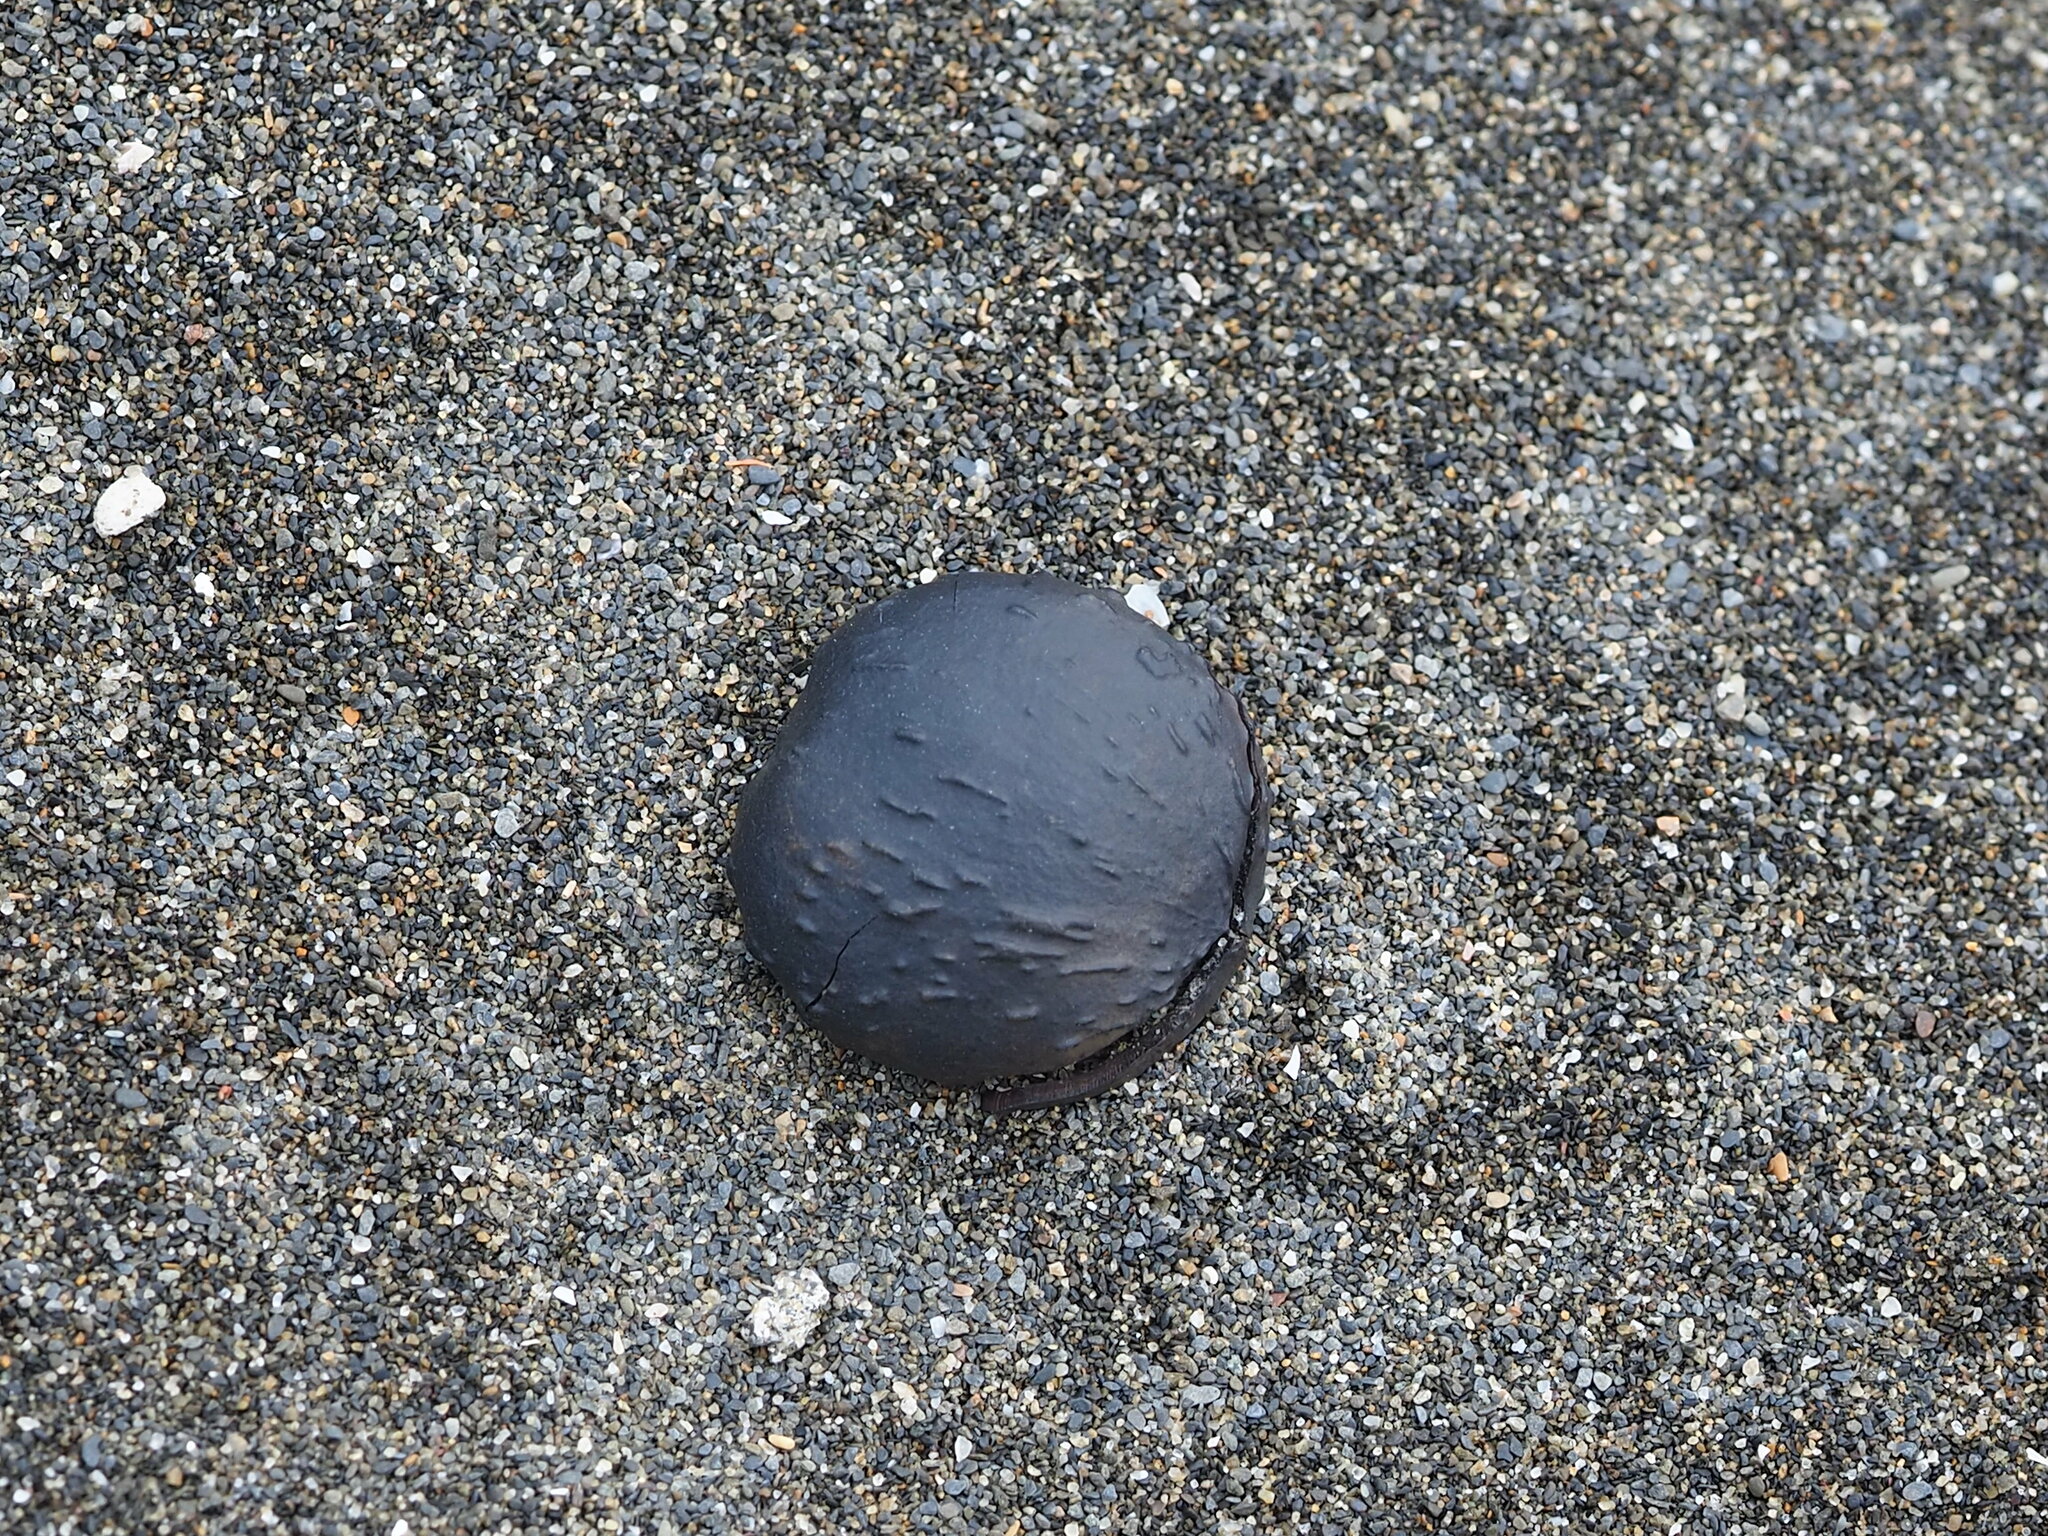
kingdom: Plantae
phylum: Tracheophyta
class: Magnoliopsida
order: Malpighiales
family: Euphorbiaceae
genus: Vernicia
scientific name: Vernicia montana
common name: Mu oil tree
